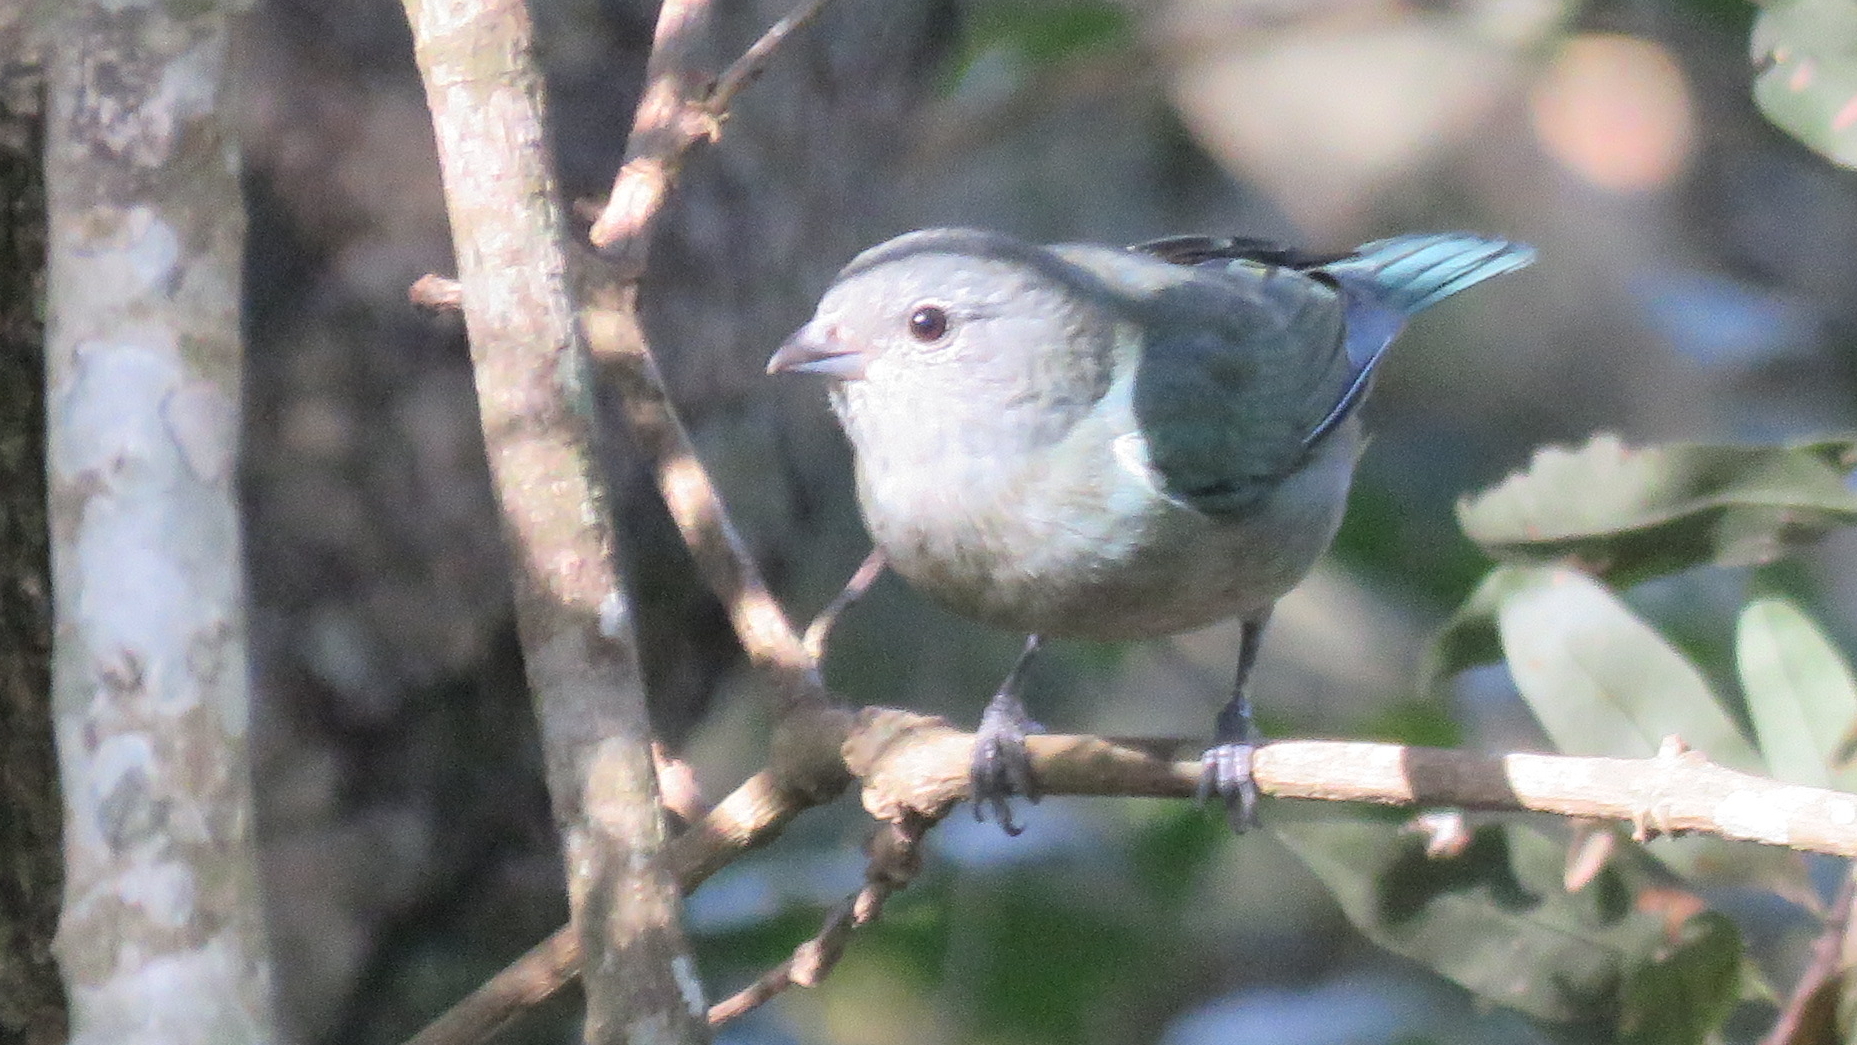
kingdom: Animalia
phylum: Chordata
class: Aves
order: Passeriformes
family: Thraupidae
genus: Thraupis
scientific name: Thraupis sayaca
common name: Sayaca tanager
